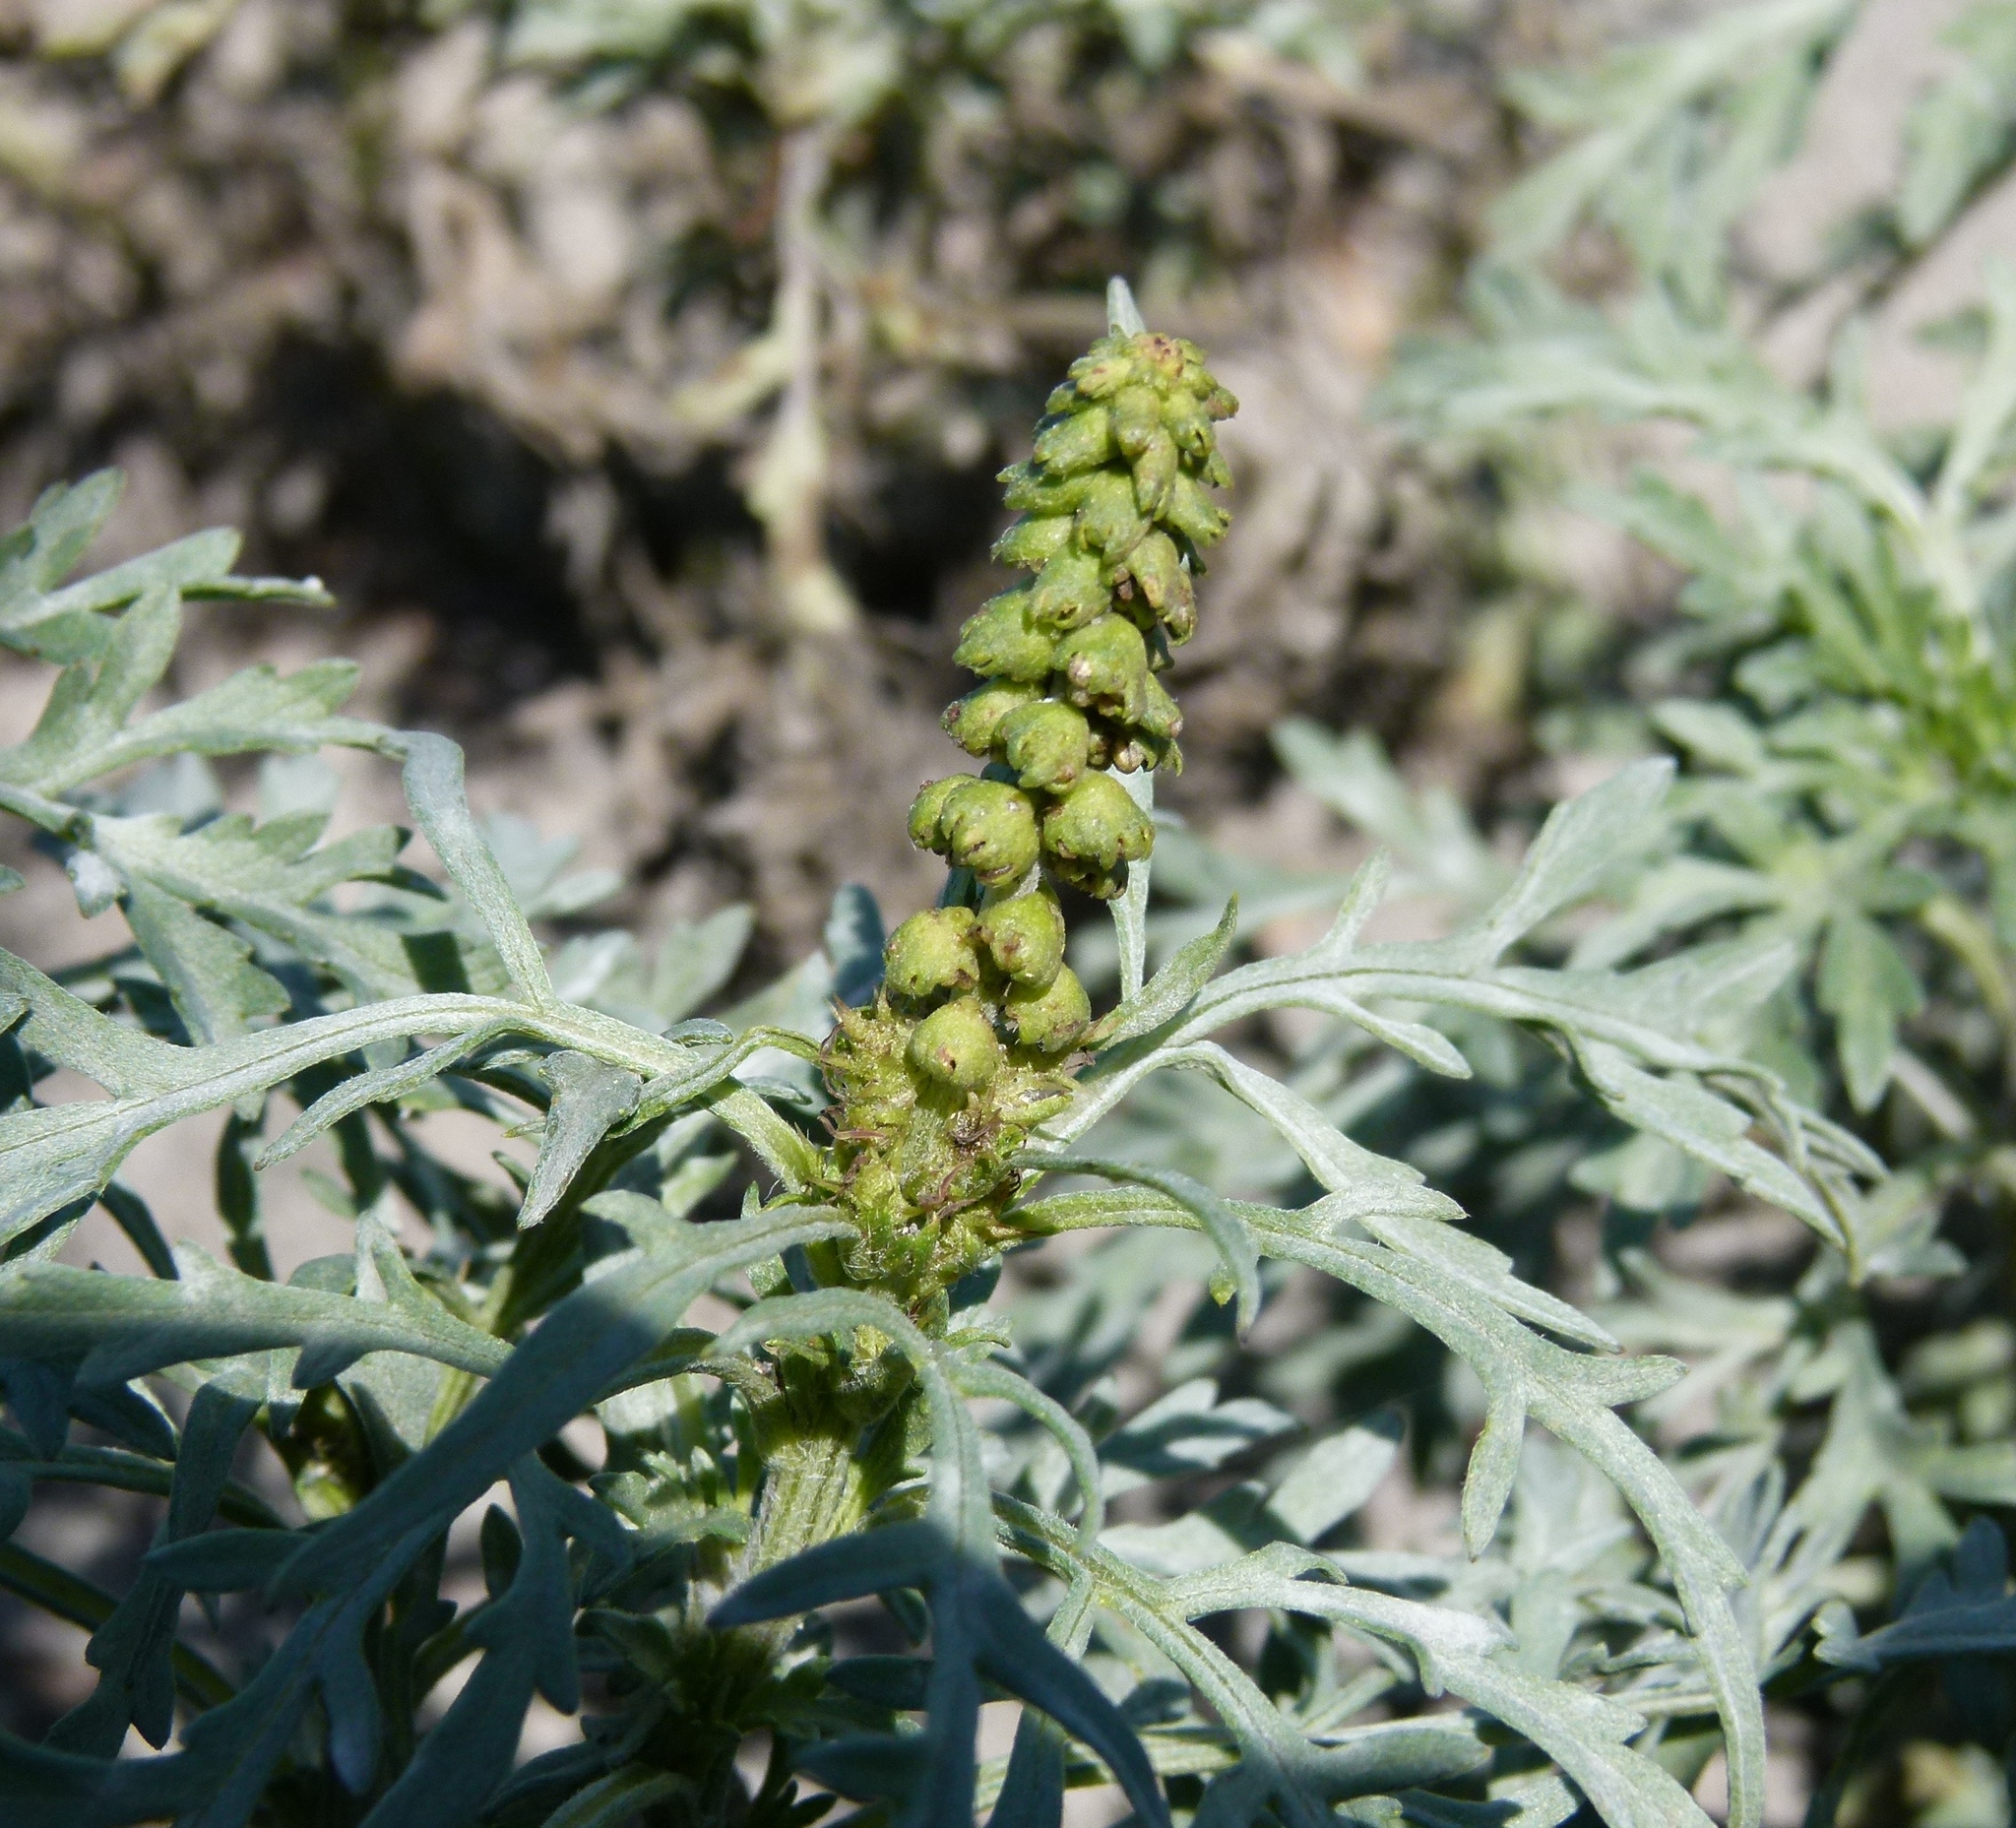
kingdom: Plantae
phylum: Tracheophyta
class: Magnoliopsida
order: Asterales
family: Asteraceae
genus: Ambrosia
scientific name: Ambrosia chamissonis
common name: Beachbur
